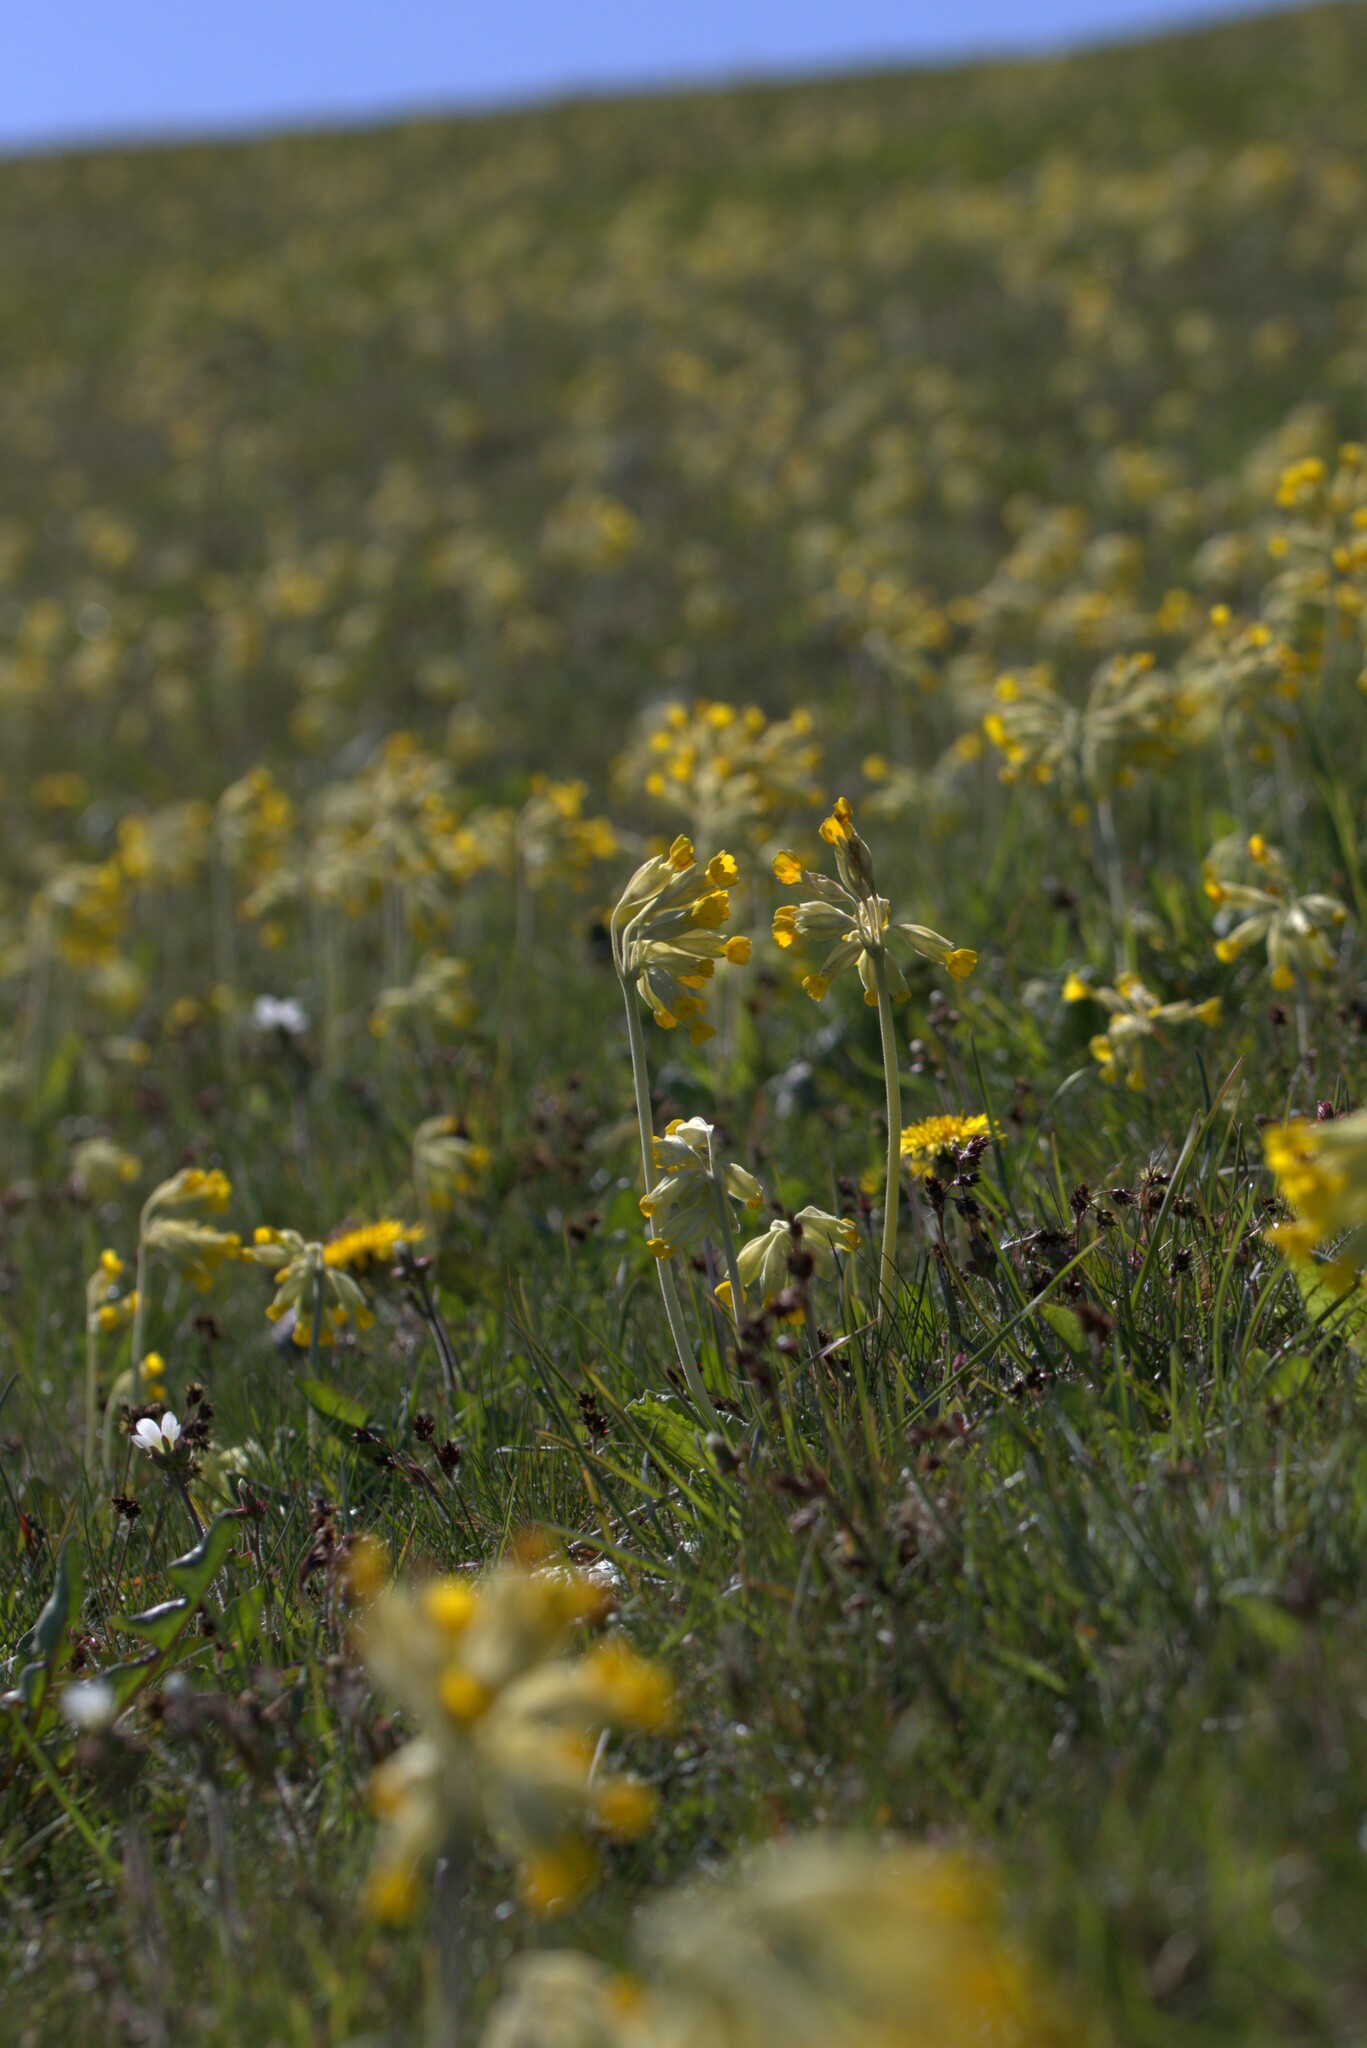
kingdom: Plantae
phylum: Tracheophyta
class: Magnoliopsida
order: Ericales
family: Primulaceae
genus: Primula
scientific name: Primula veris
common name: Cowslip
